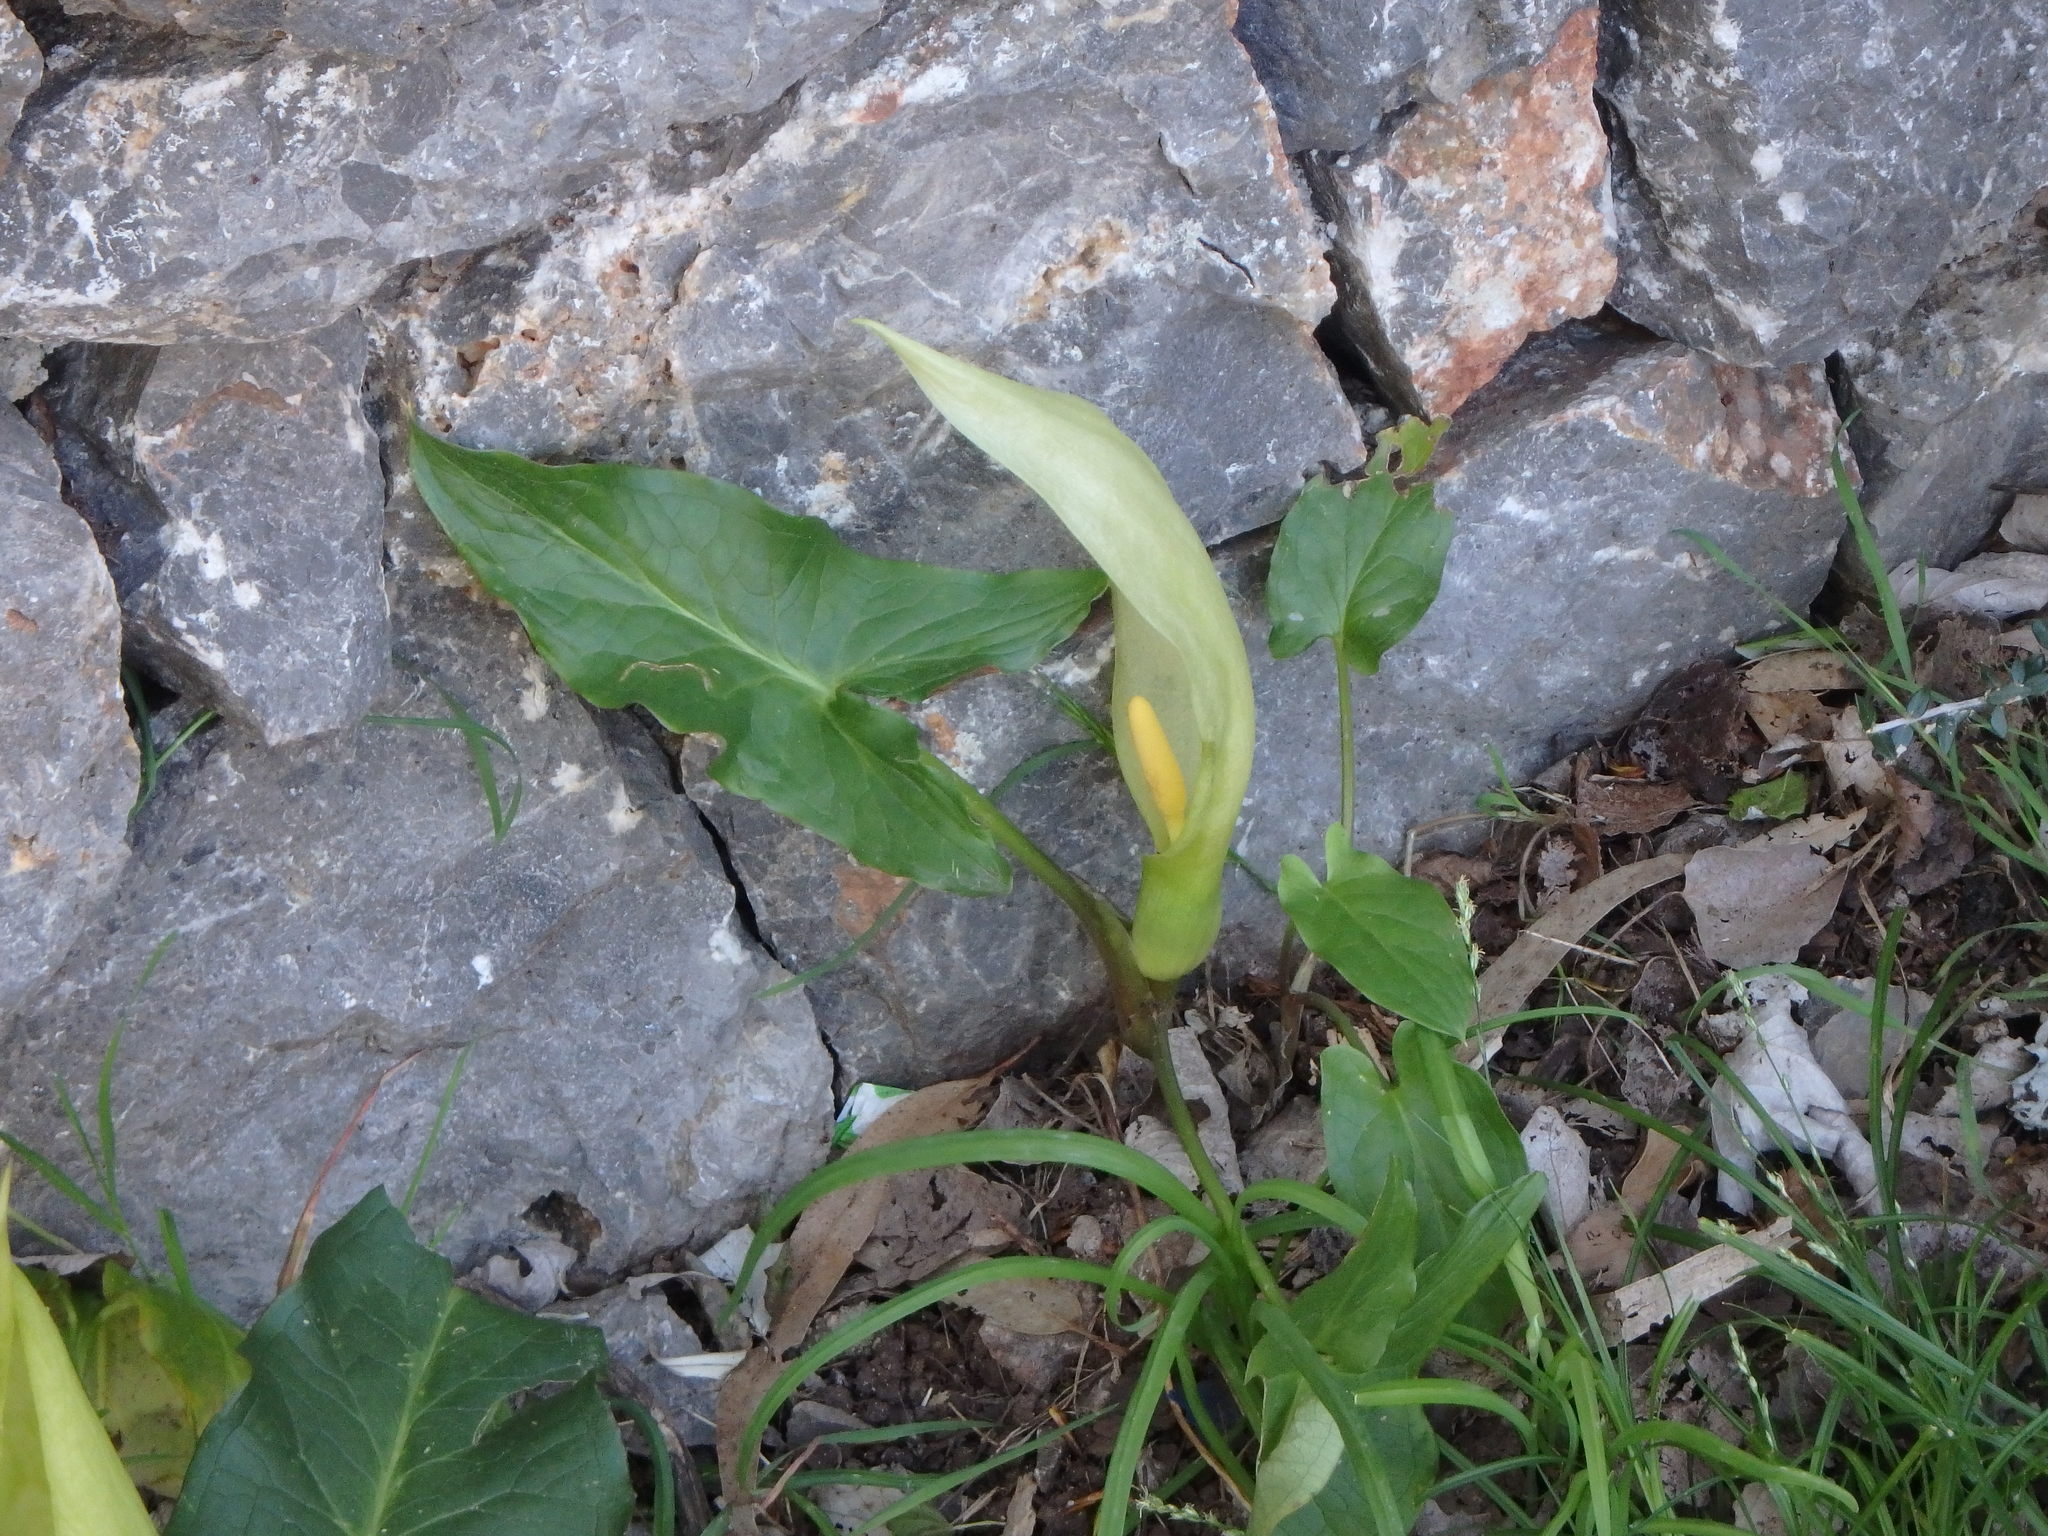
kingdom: Plantae
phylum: Tracheophyta
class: Liliopsida
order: Alismatales
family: Araceae
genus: Arum
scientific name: Arum italicum
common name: Italian lords-and-ladies
